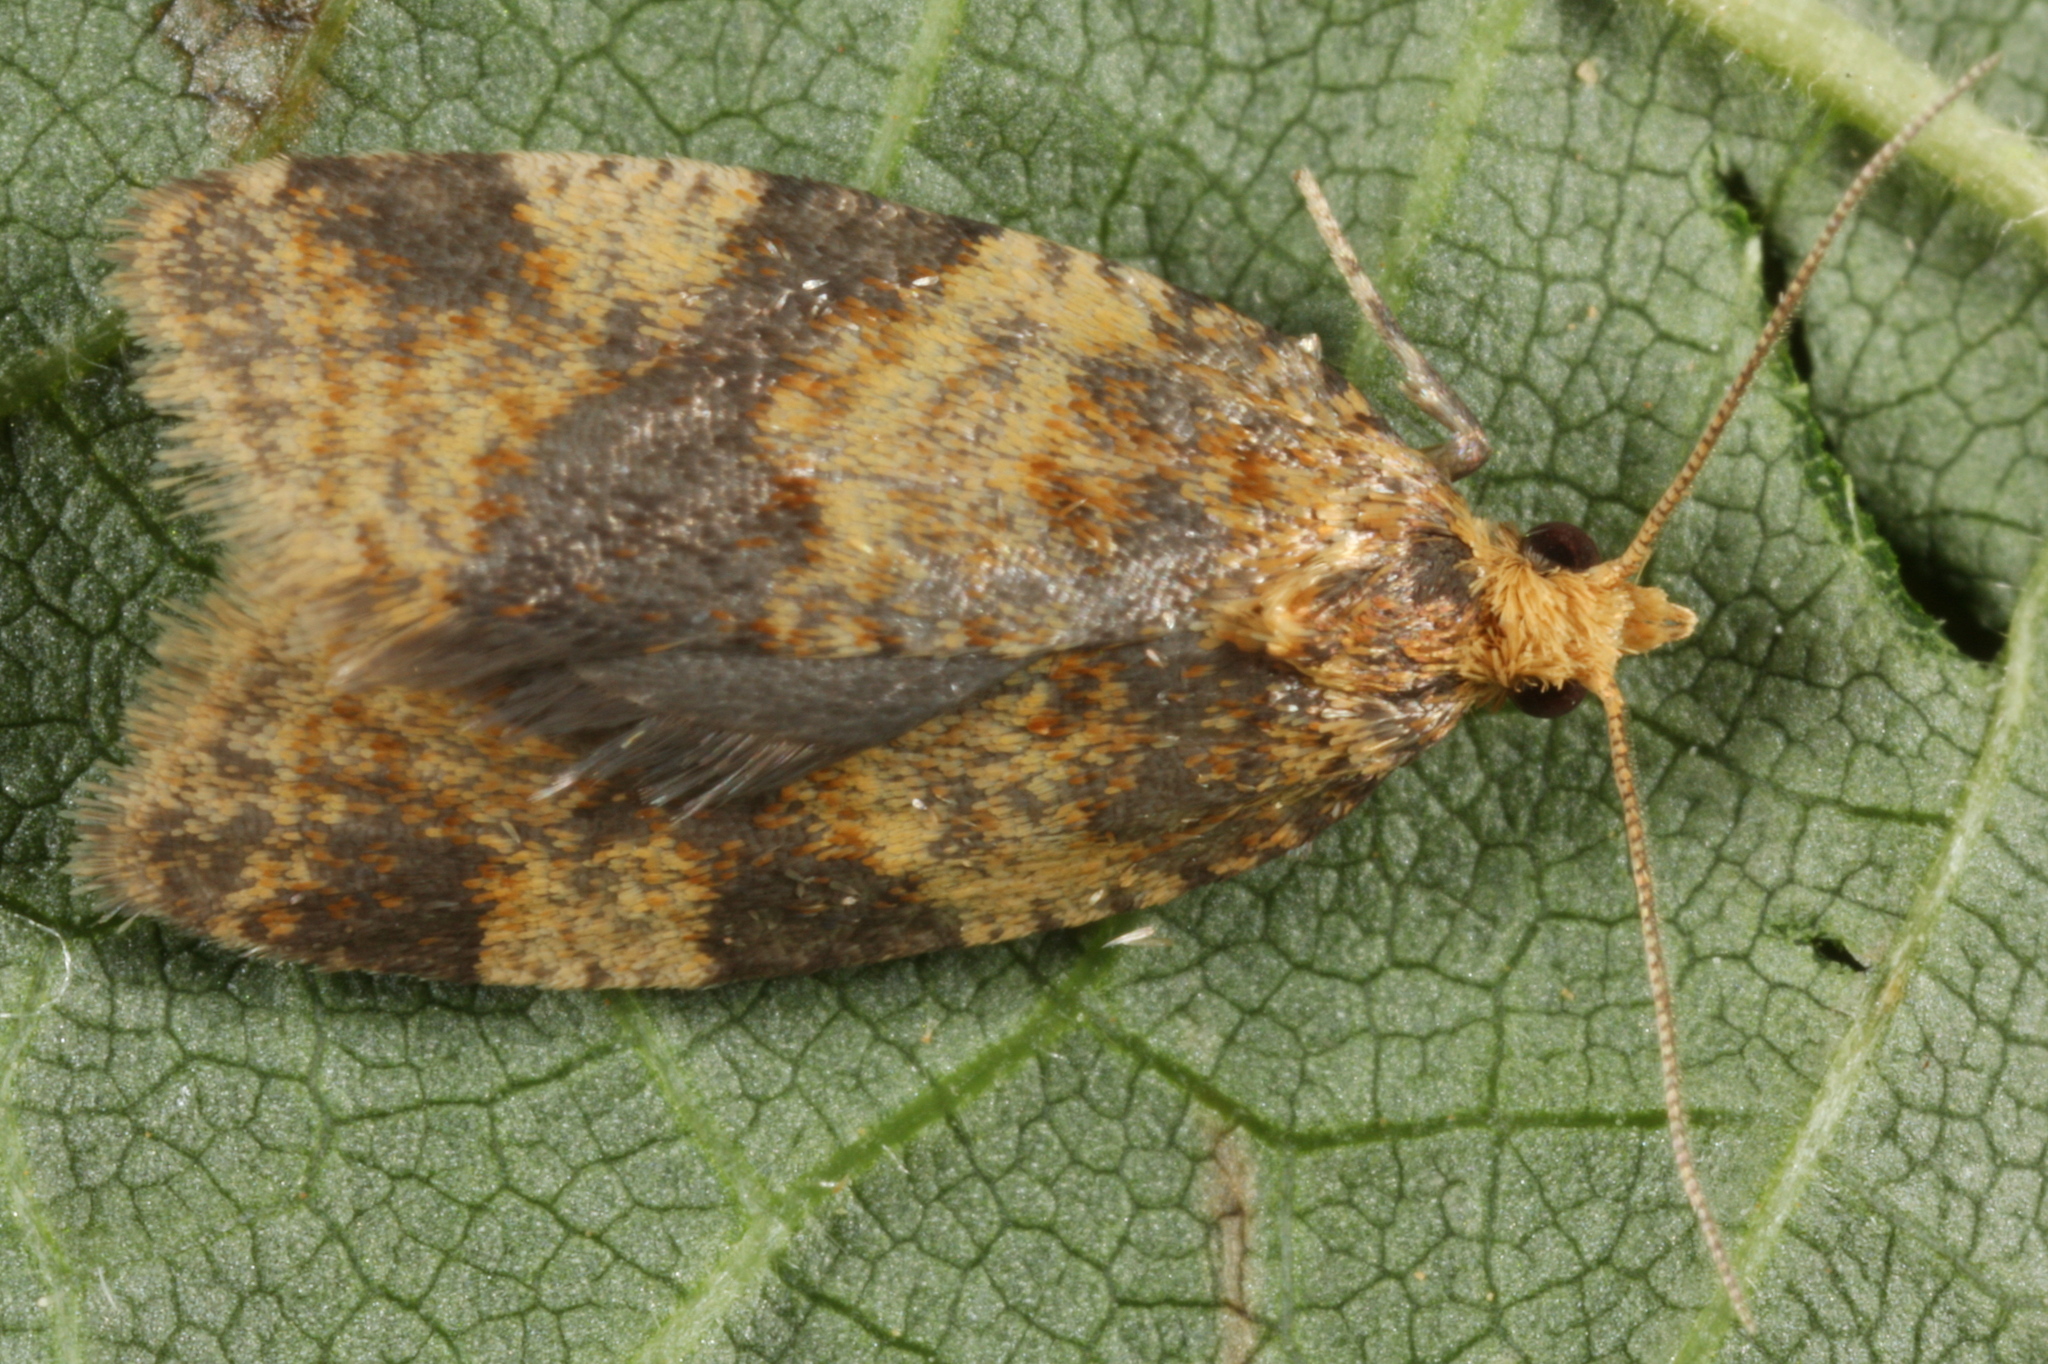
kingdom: Animalia
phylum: Arthropoda
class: Insecta
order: Lepidoptera
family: Tortricidae
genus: Epagoge
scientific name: Epagoge grotiana
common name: Brown-barred twist
